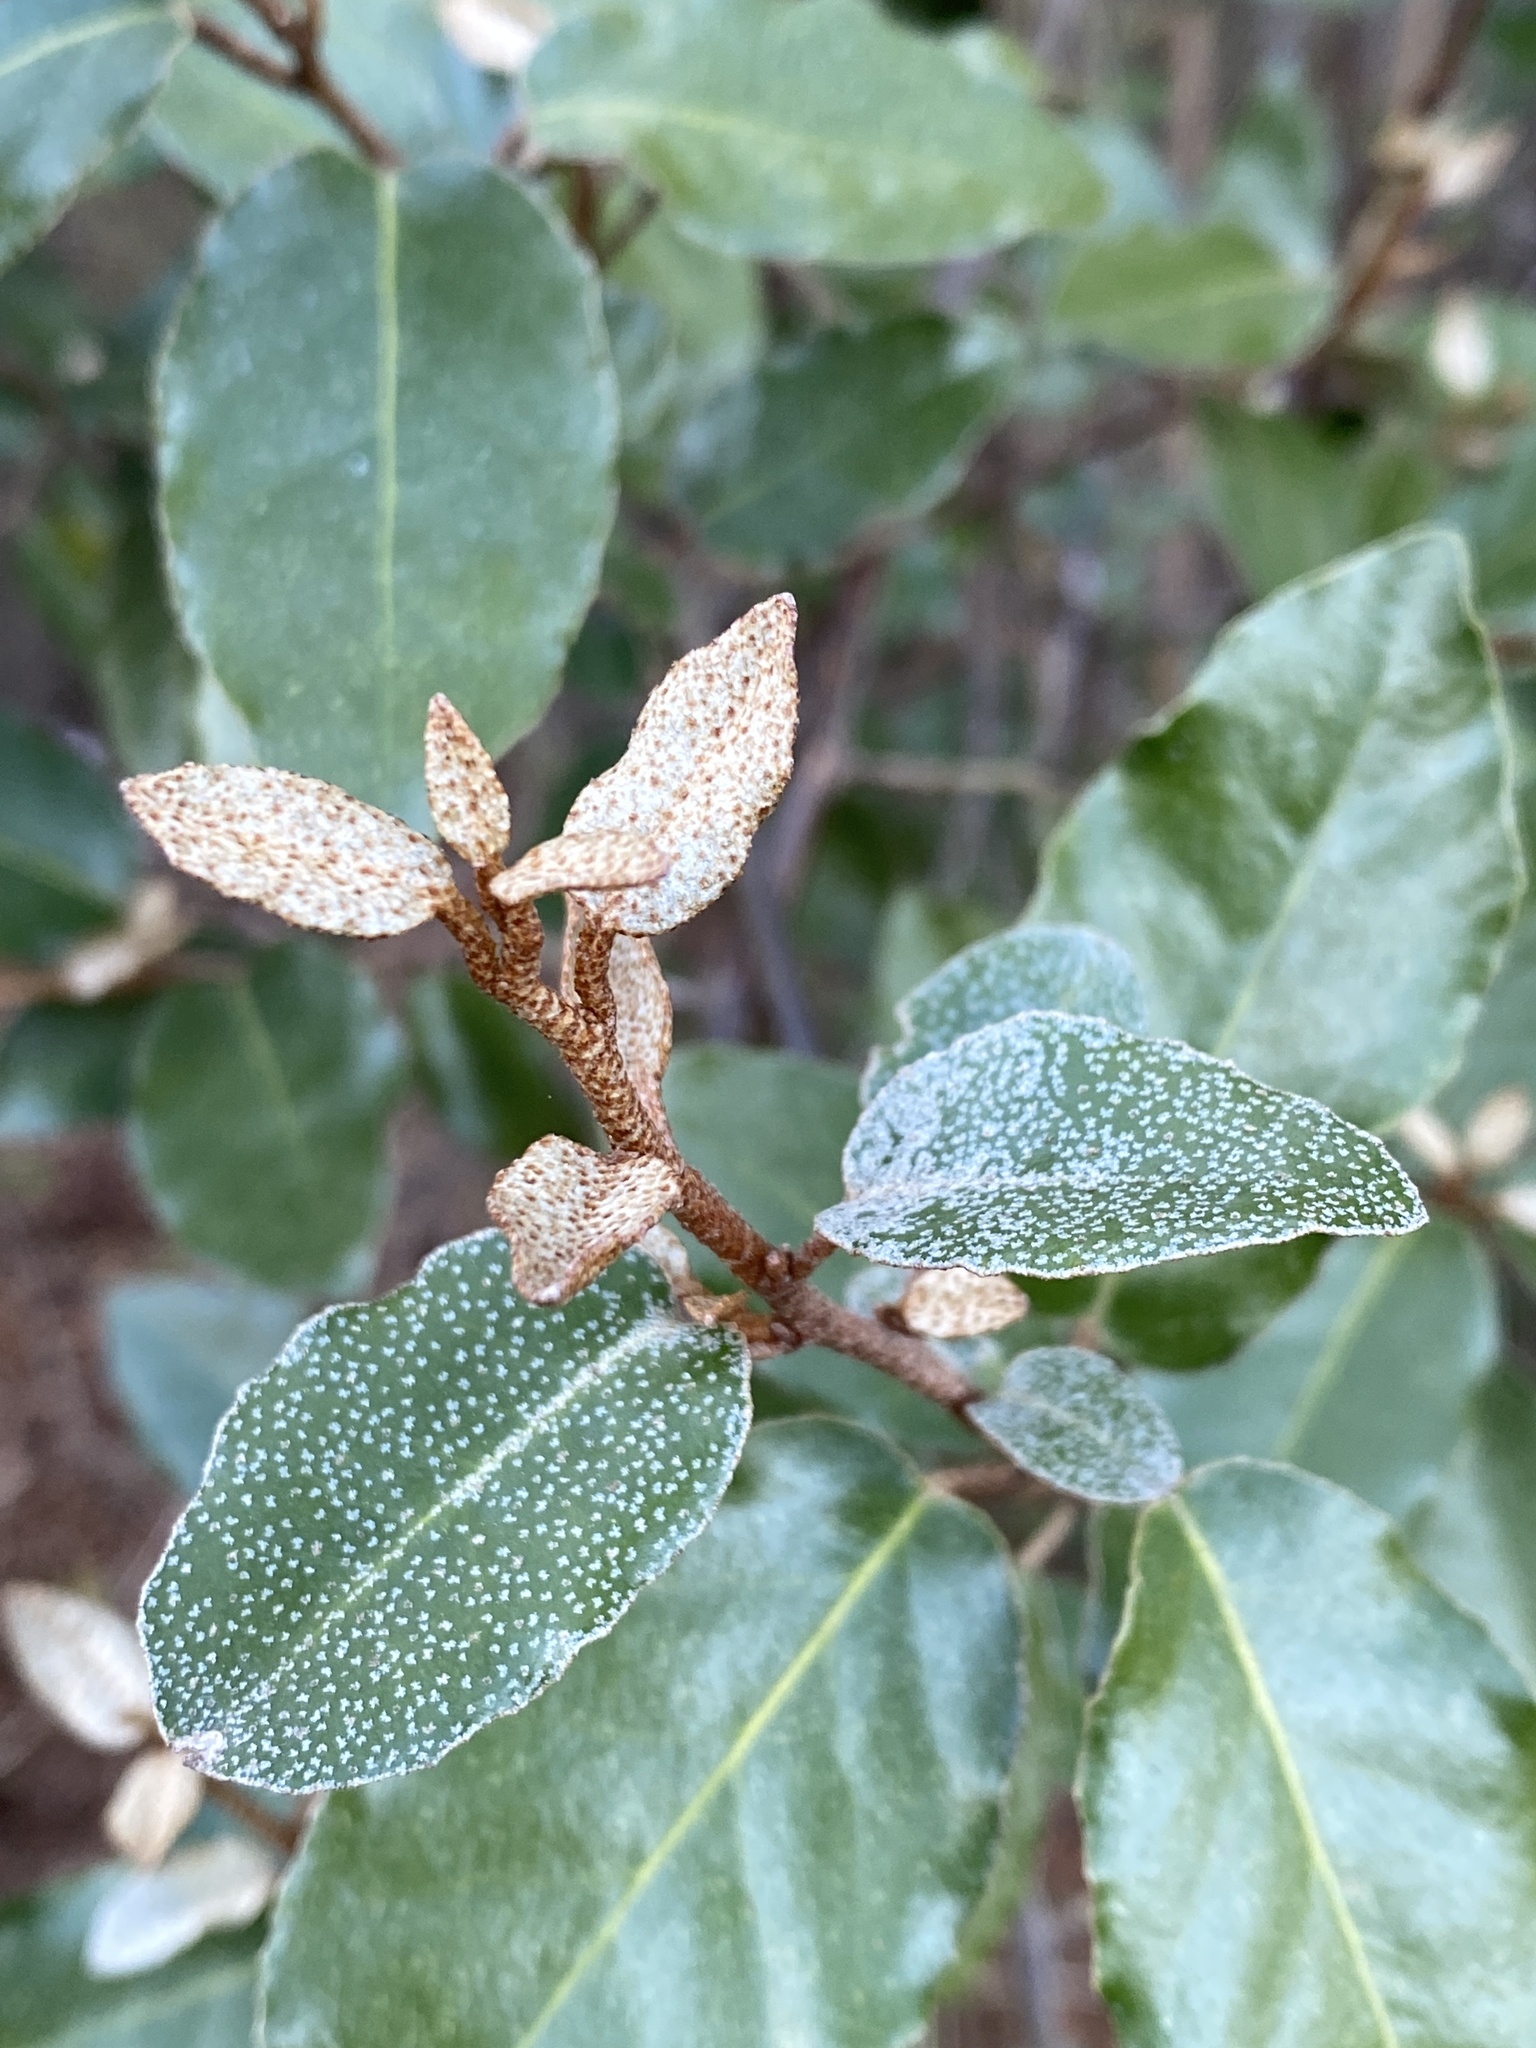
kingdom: Plantae
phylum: Tracheophyta
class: Magnoliopsida
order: Rosales
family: Elaeagnaceae
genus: Elaeagnus
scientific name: Elaeagnus pungens
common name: Spiny oleaster
